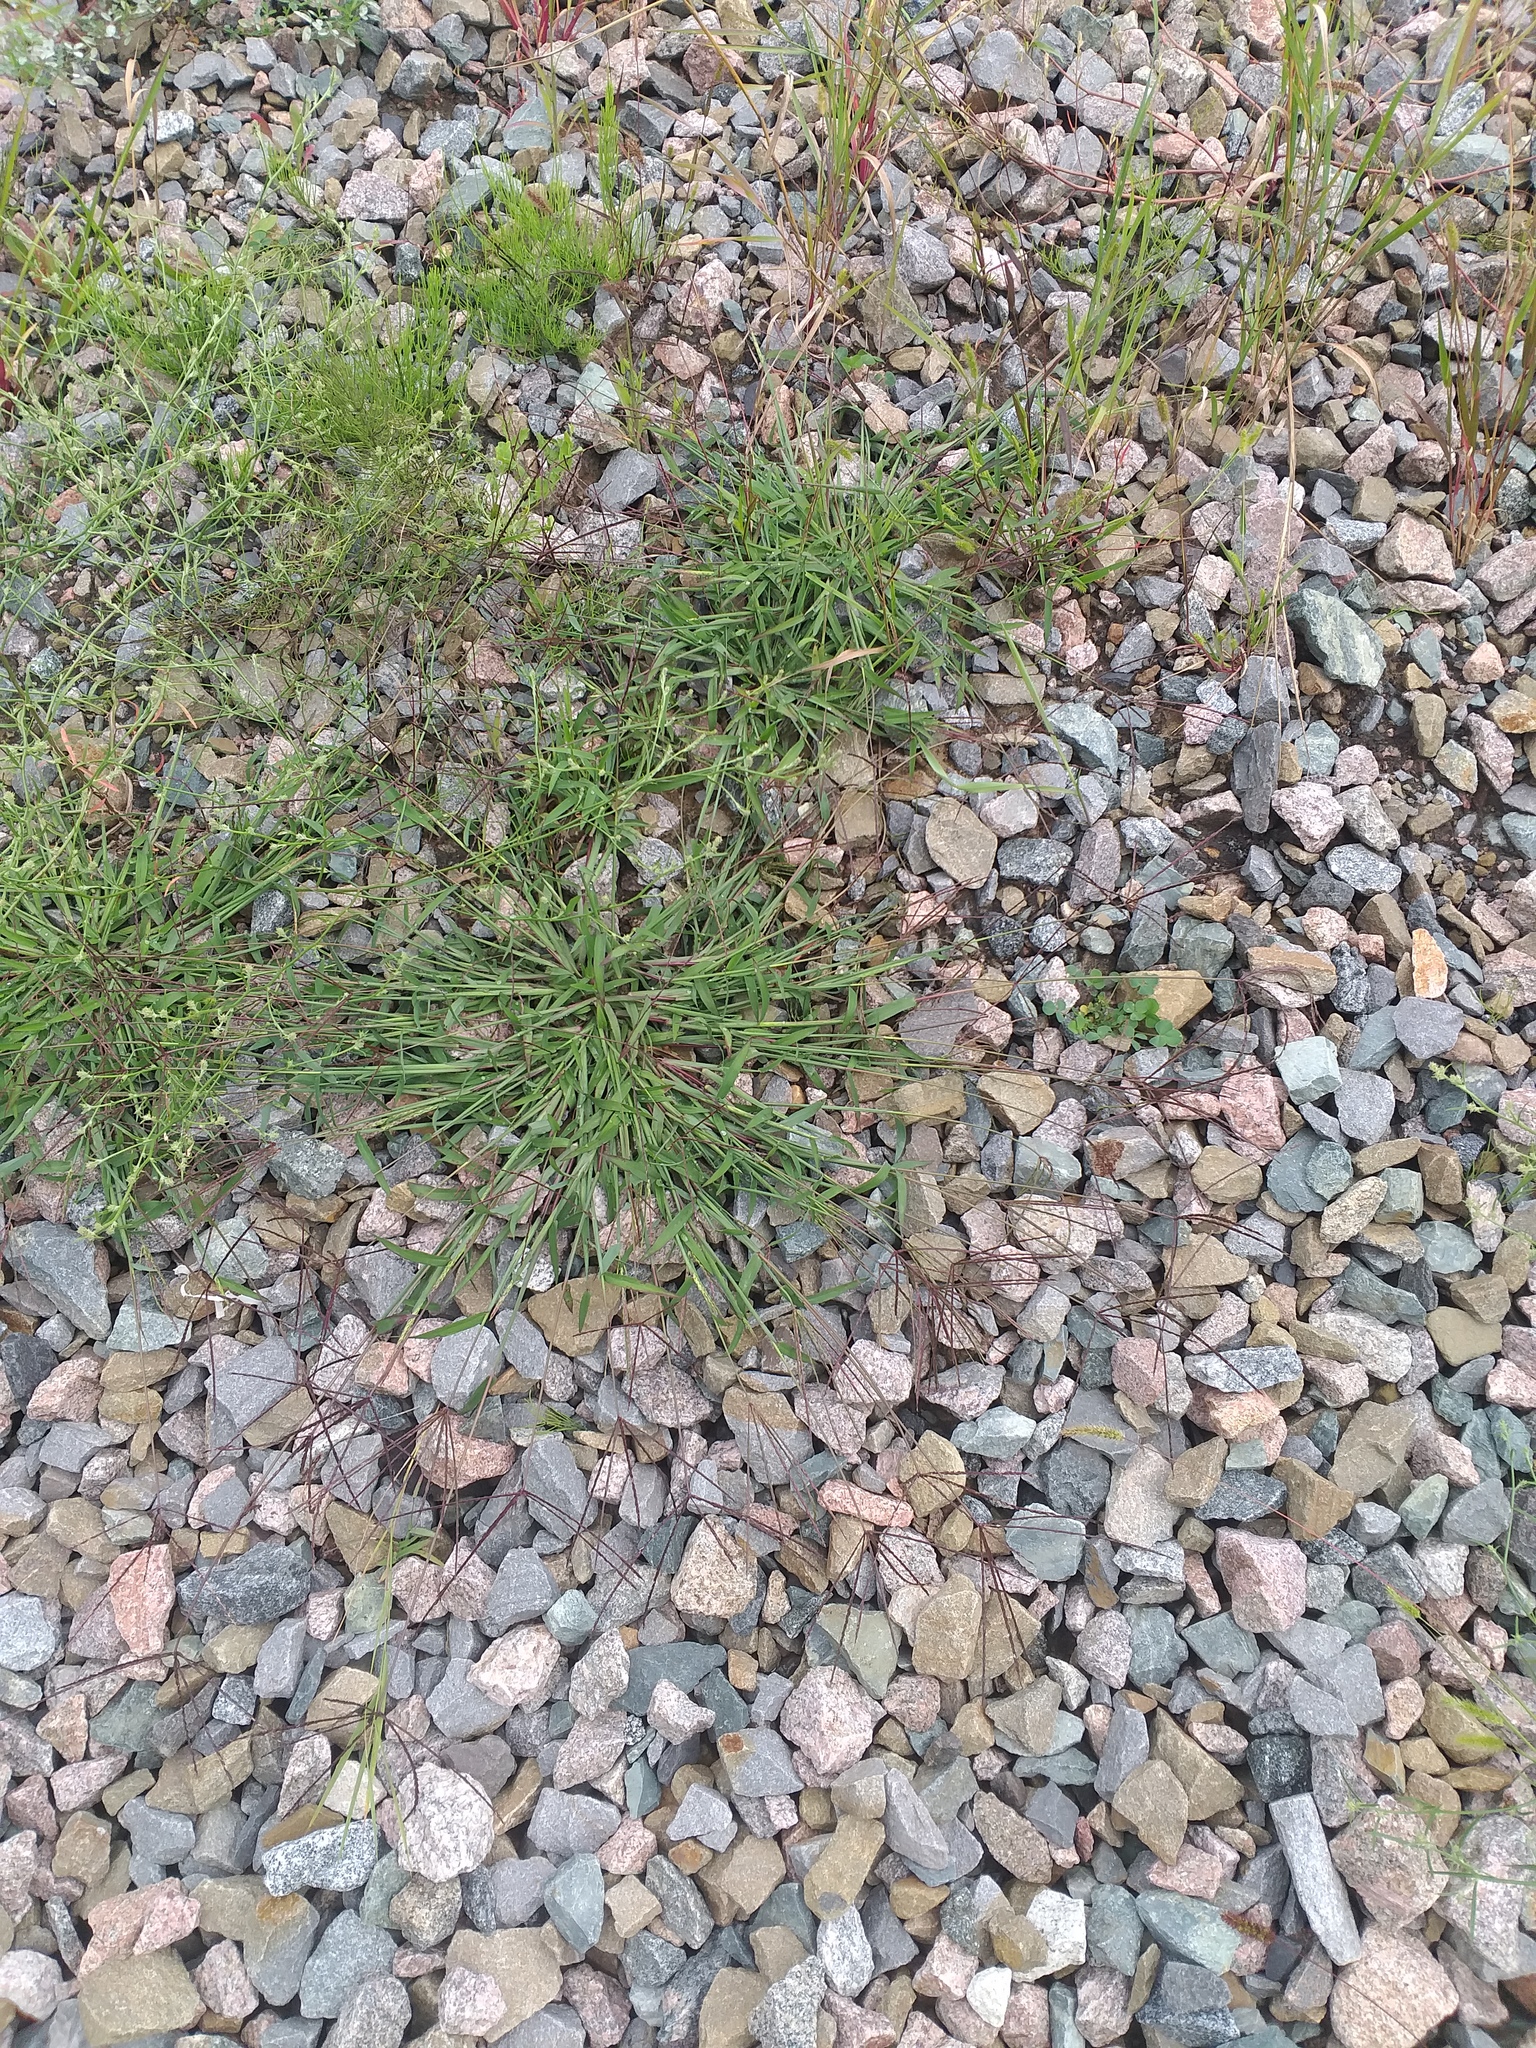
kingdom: Plantae
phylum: Tracheophyta
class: Liliopsida
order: Poales
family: Poaceae
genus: Digitaria
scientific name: Digitaria sanguinalis
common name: Hairy crabgrass
